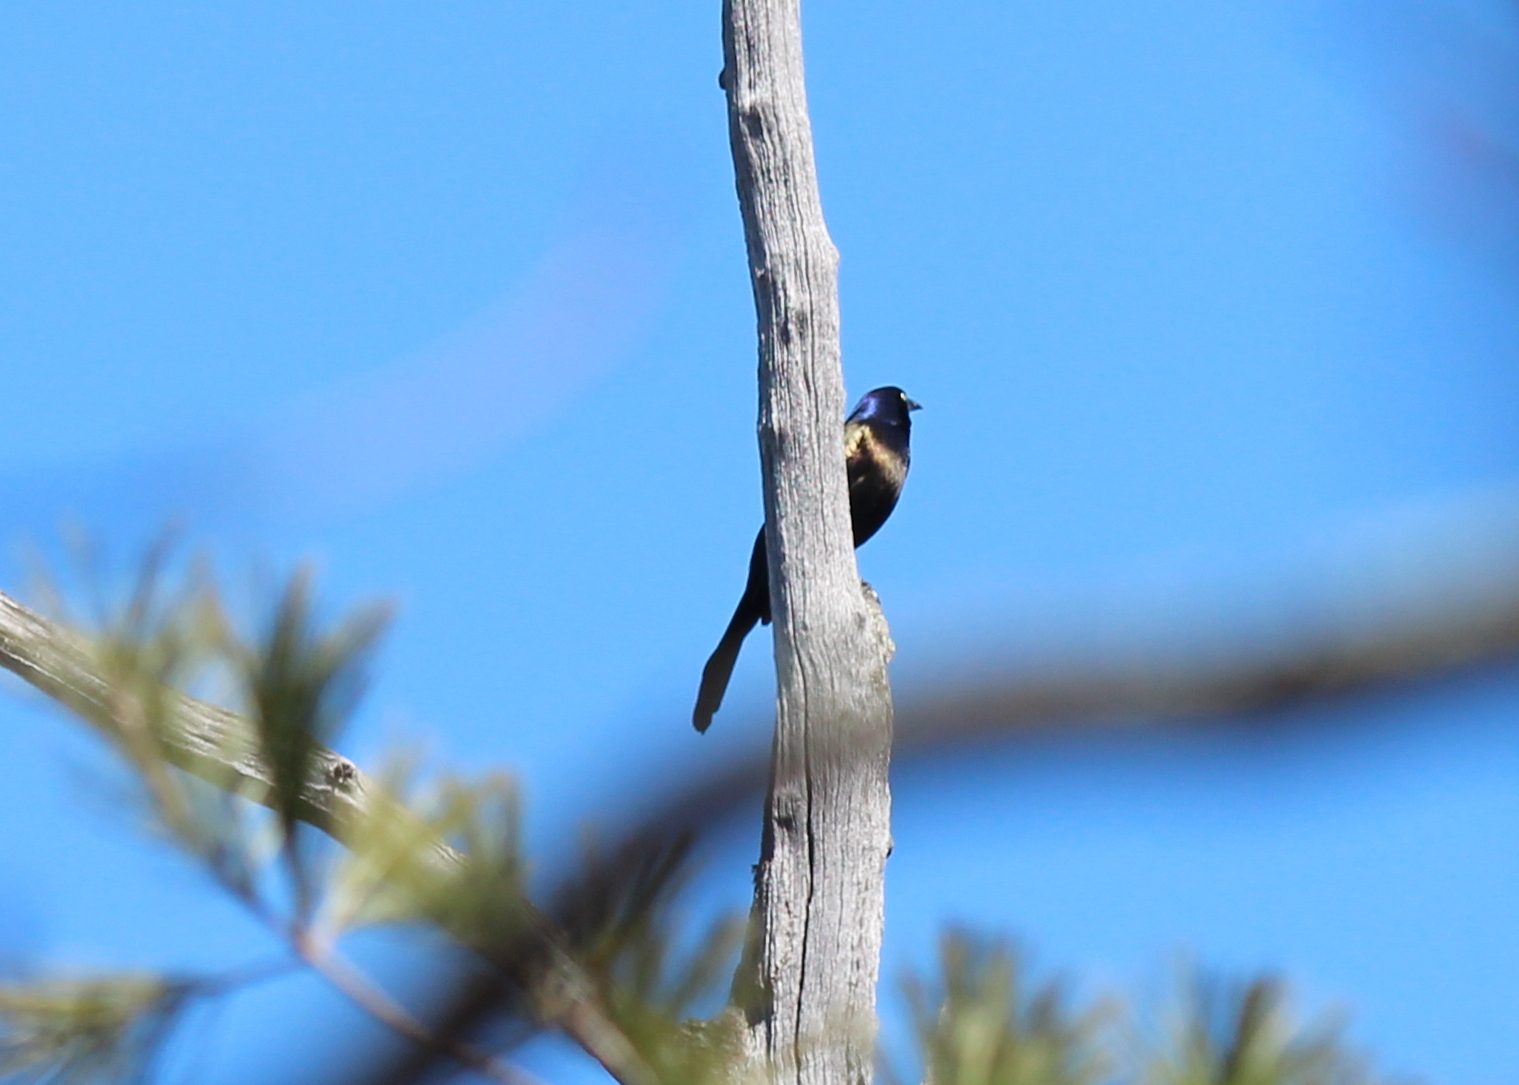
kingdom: Animalia
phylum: Chordata
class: Aves
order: Passeriformes
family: Icteridae
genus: Quiscalus
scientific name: Quiscalus quiscula
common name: Common grackle
